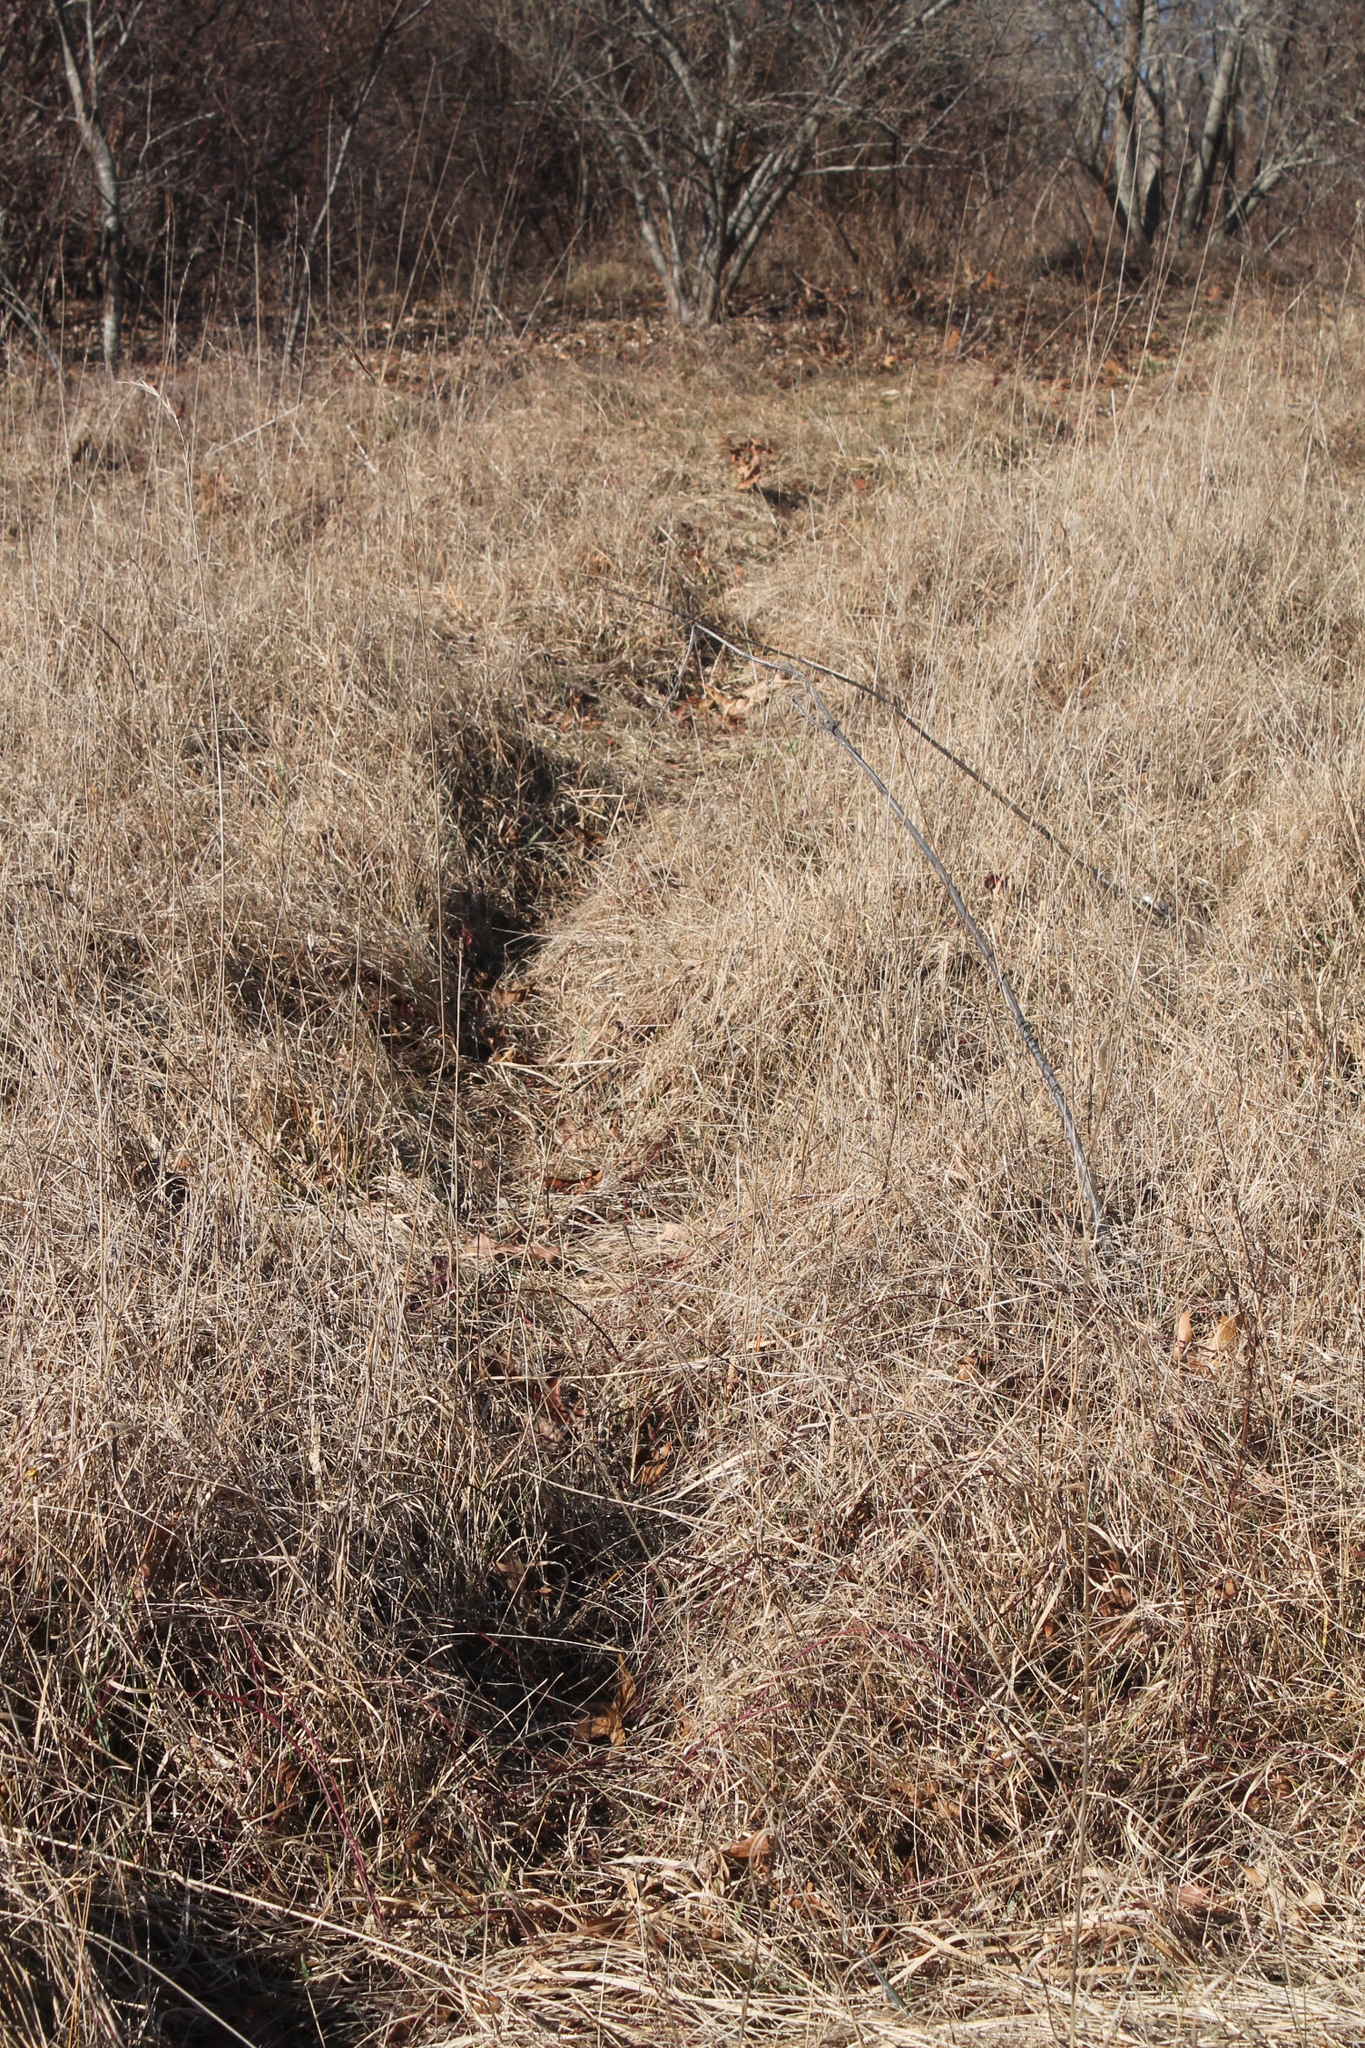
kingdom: Animalia
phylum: Chordata
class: Mammalia
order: Artiodactyla
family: Cervidae
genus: Odocoileus
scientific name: Odocoileus virginianus
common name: White-tailed deer
